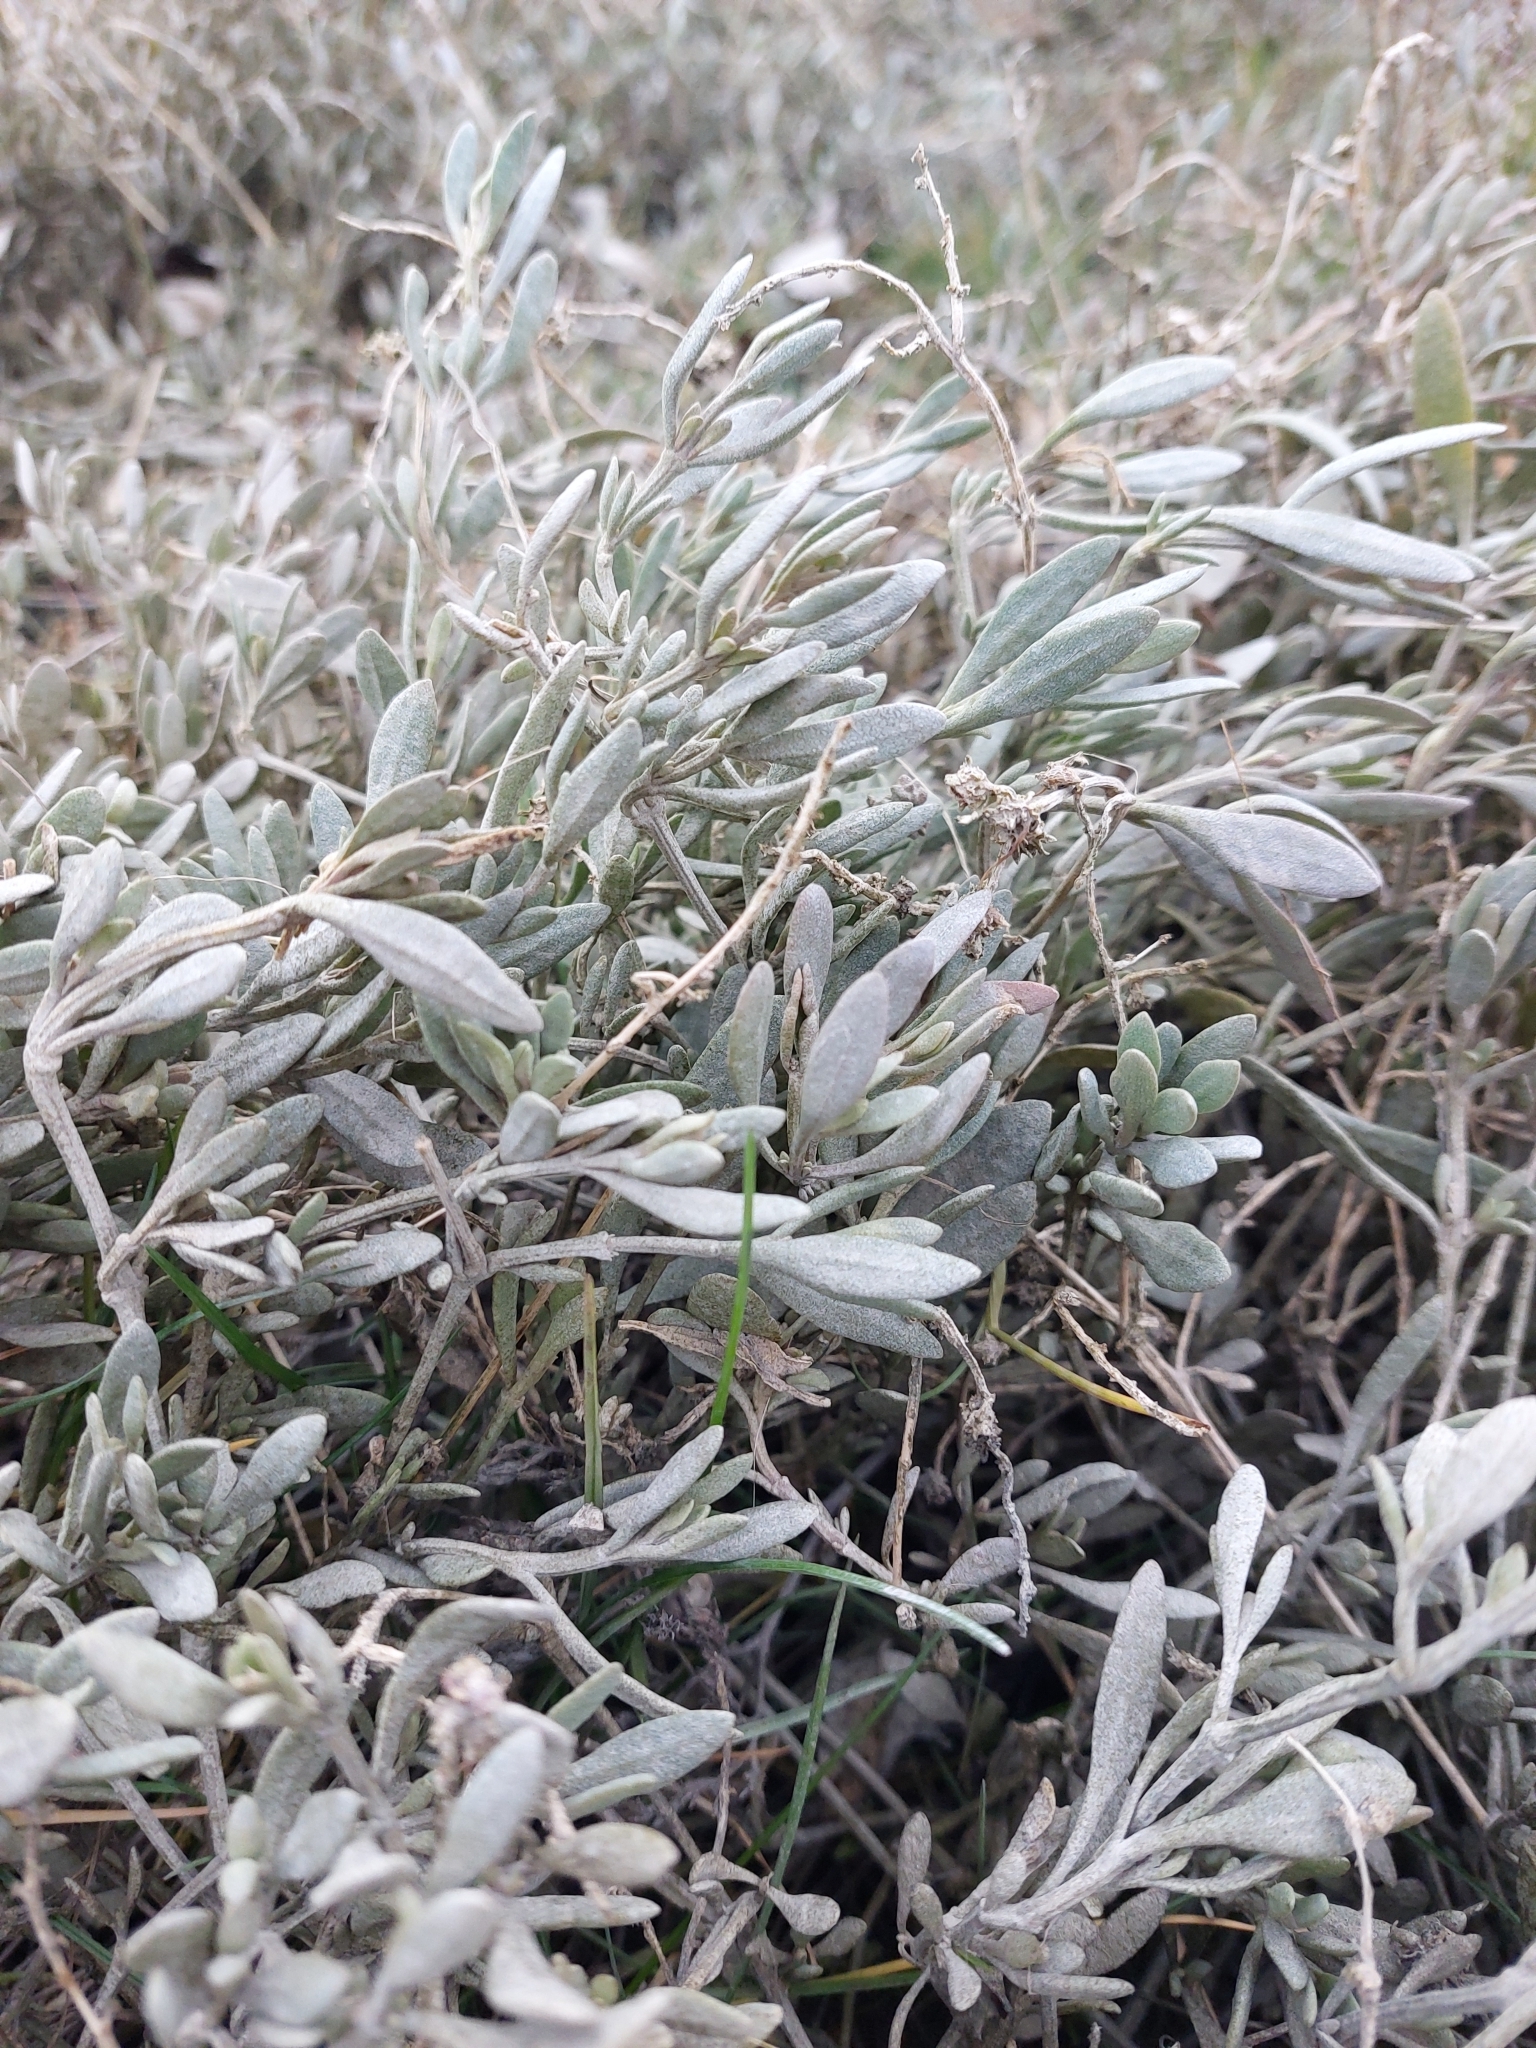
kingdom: Plantae
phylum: Tracheophyta
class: Magnoliopsida
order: Caryophyllales
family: Amaranthaceae
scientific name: Amaranthaceae
